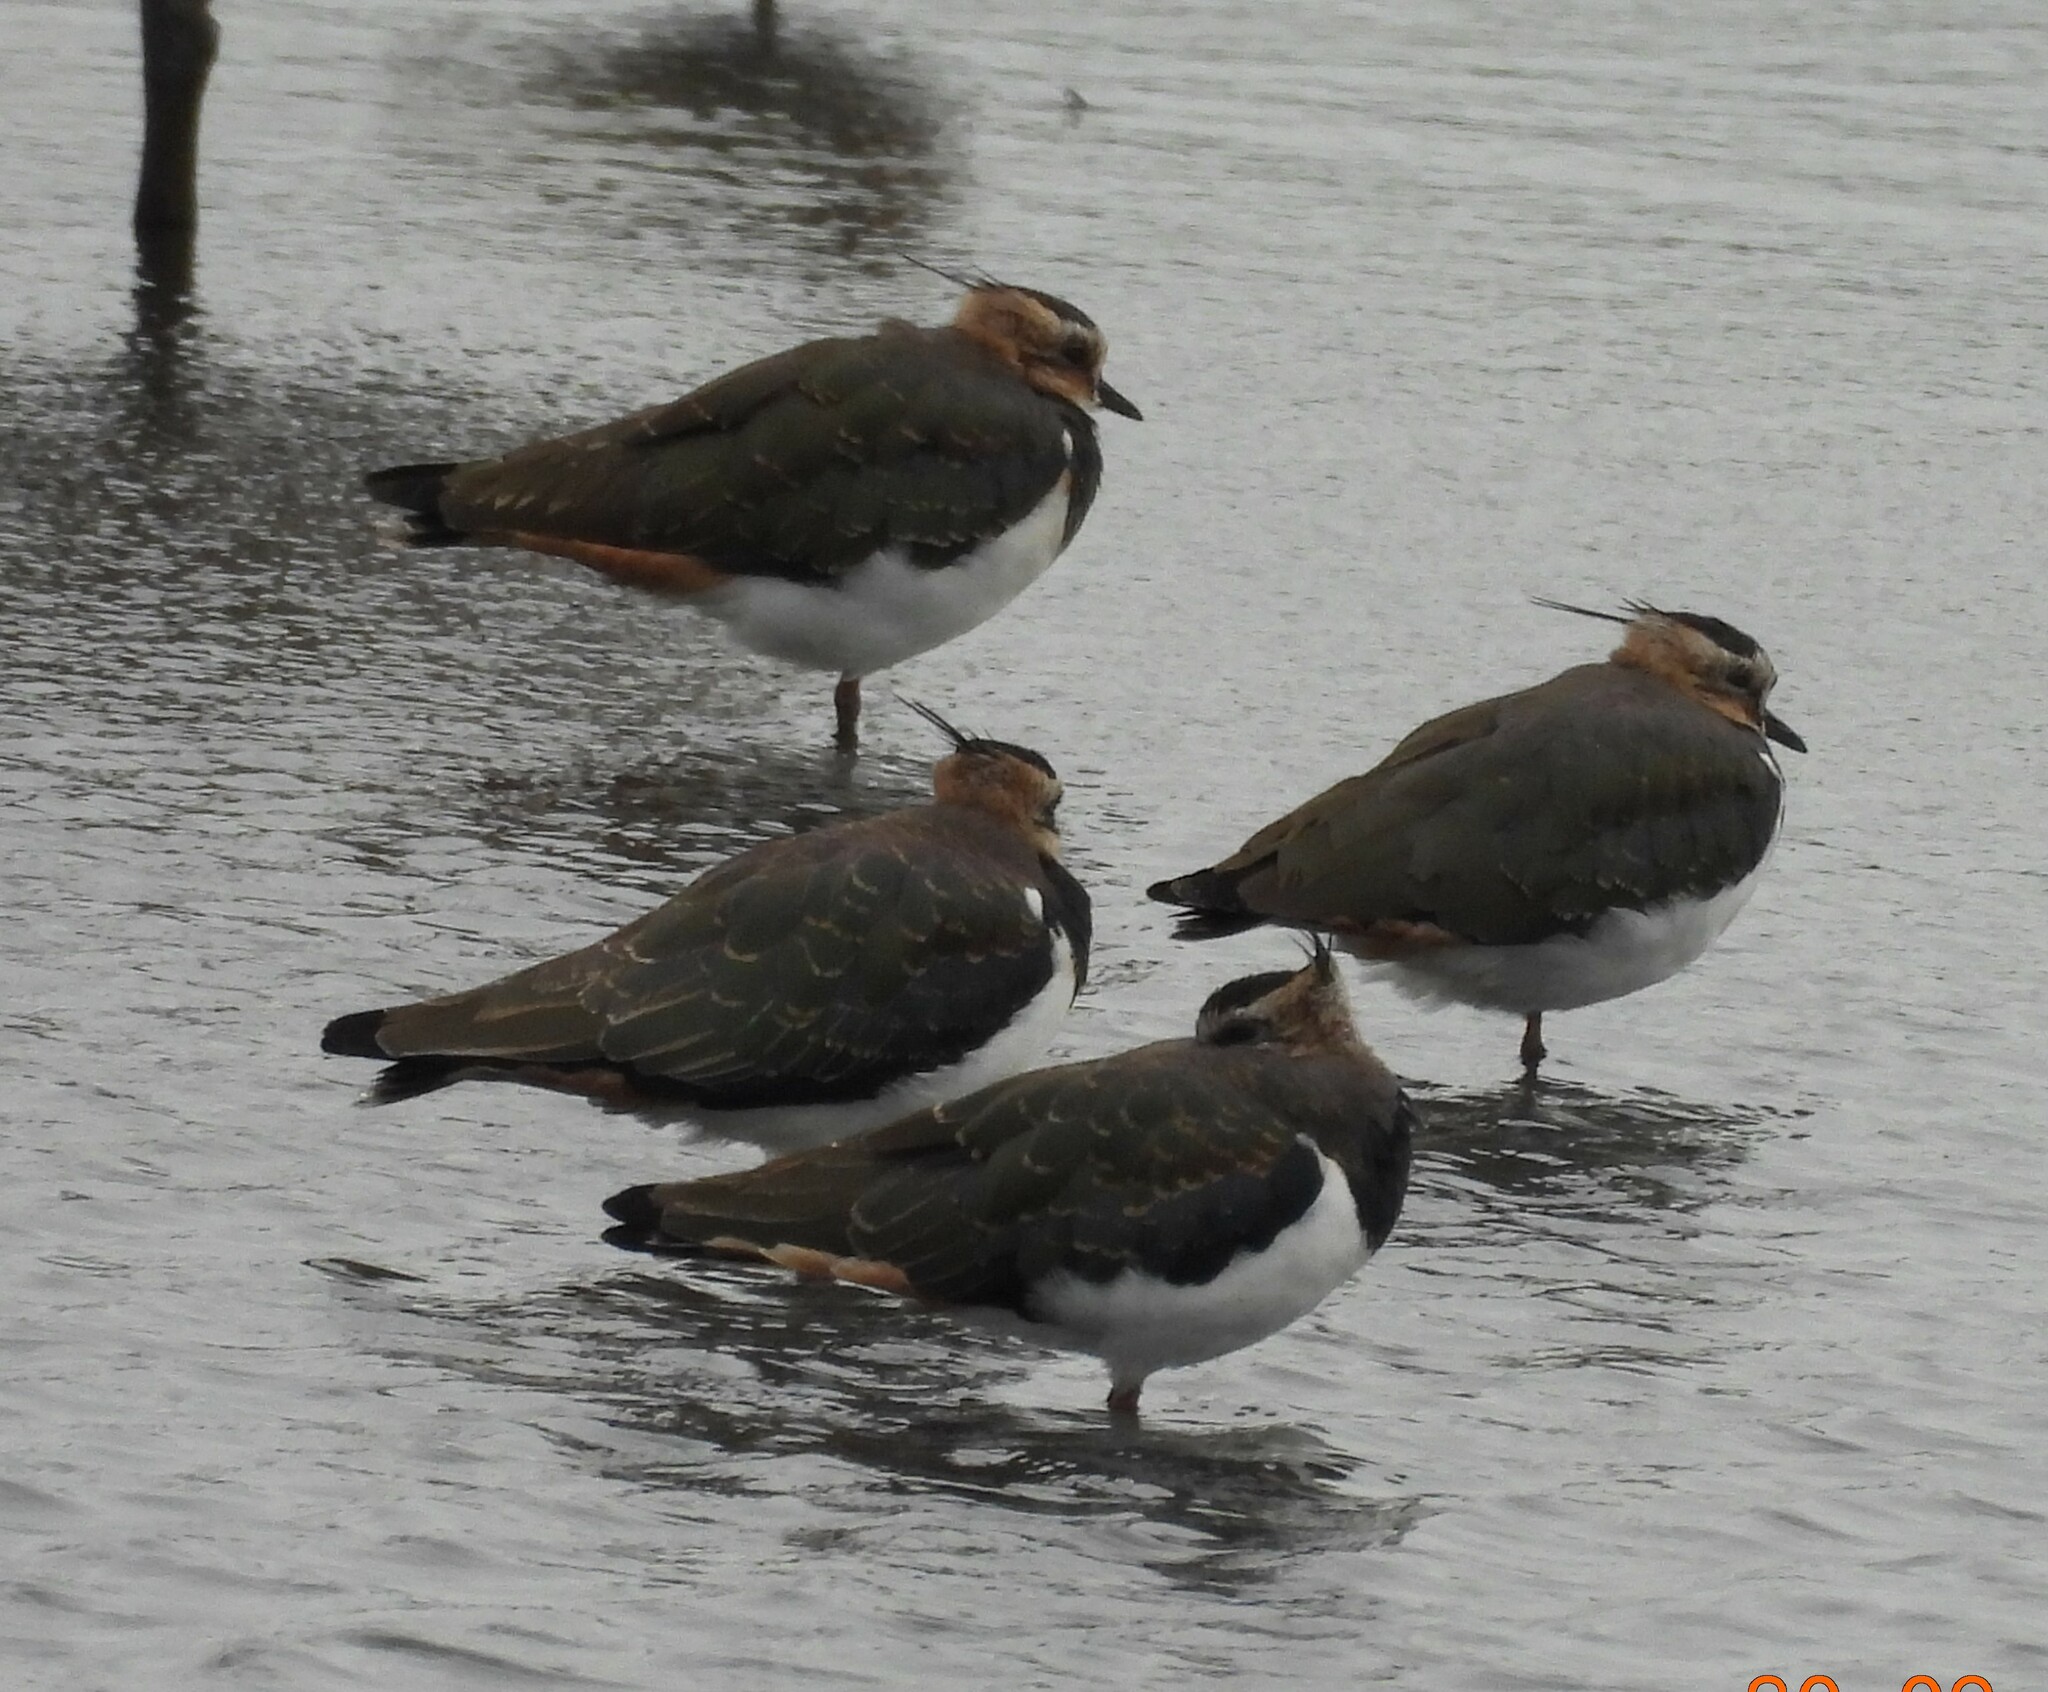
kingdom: Animalia
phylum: Chordata
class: Aves
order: Charadriiformes
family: Charadriidae
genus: Vanellus
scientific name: Vanellus vanellus
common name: Northern lapwing
